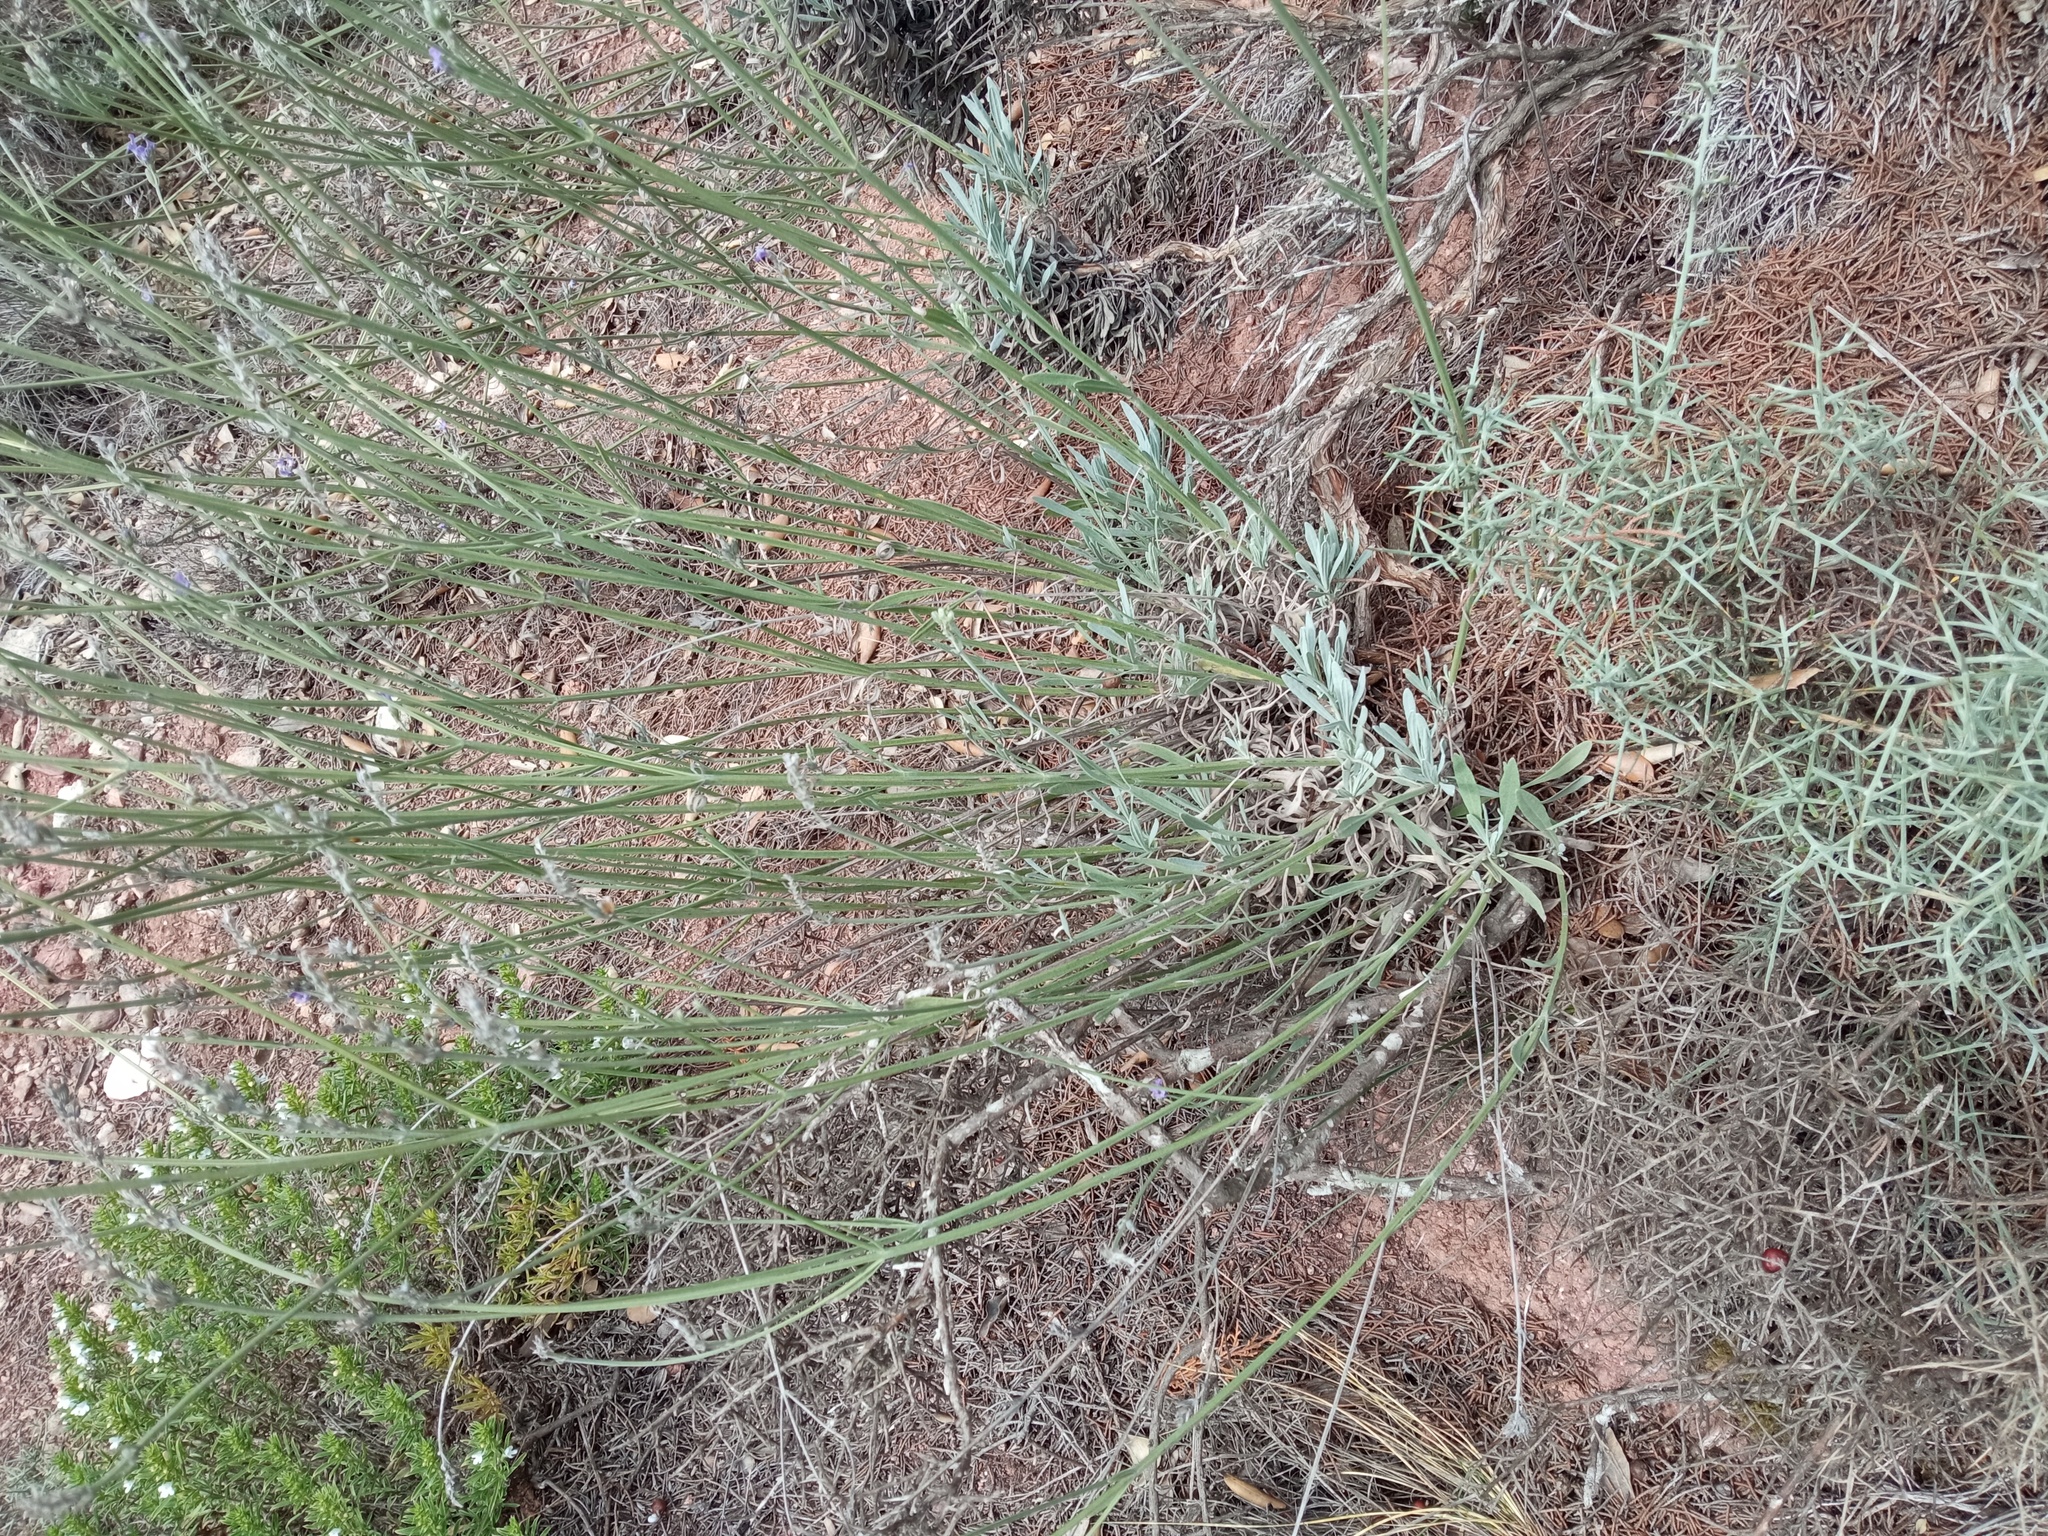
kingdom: Plantae
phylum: Tracheophyta
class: Magnoliopsida
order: Lamiales
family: Lamiaceae
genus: Lavandula
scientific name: Lavandula latifolia
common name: Spike lavendar
